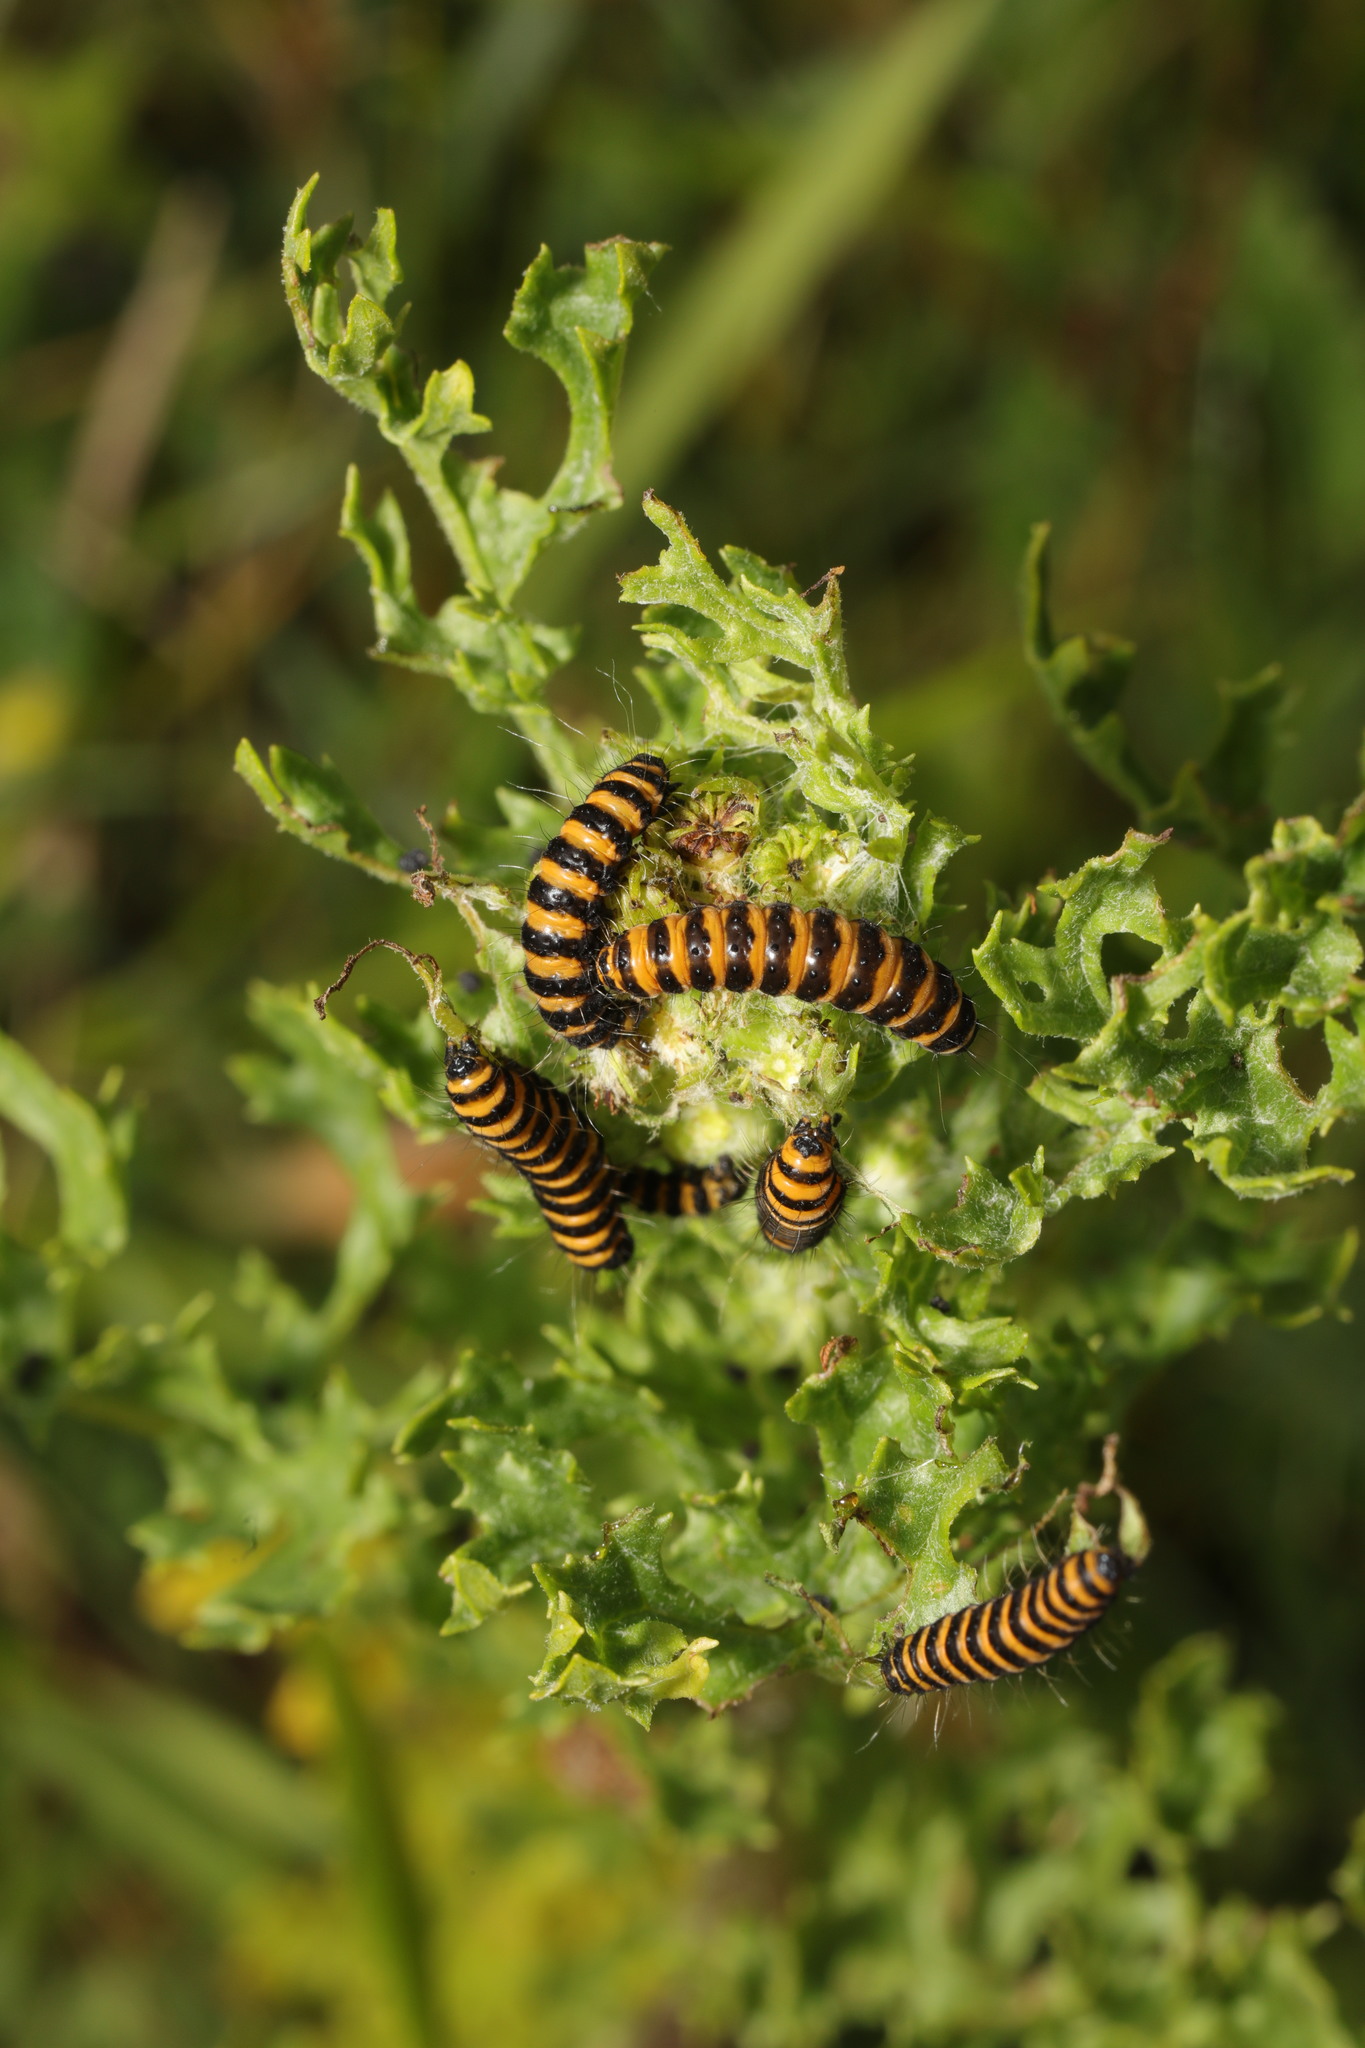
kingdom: Animalia
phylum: Arthropoda
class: Insecta
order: Lepidoptera
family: Erebidae
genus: Tyria
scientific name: Tyria jacobaeae
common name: Cinnabar
